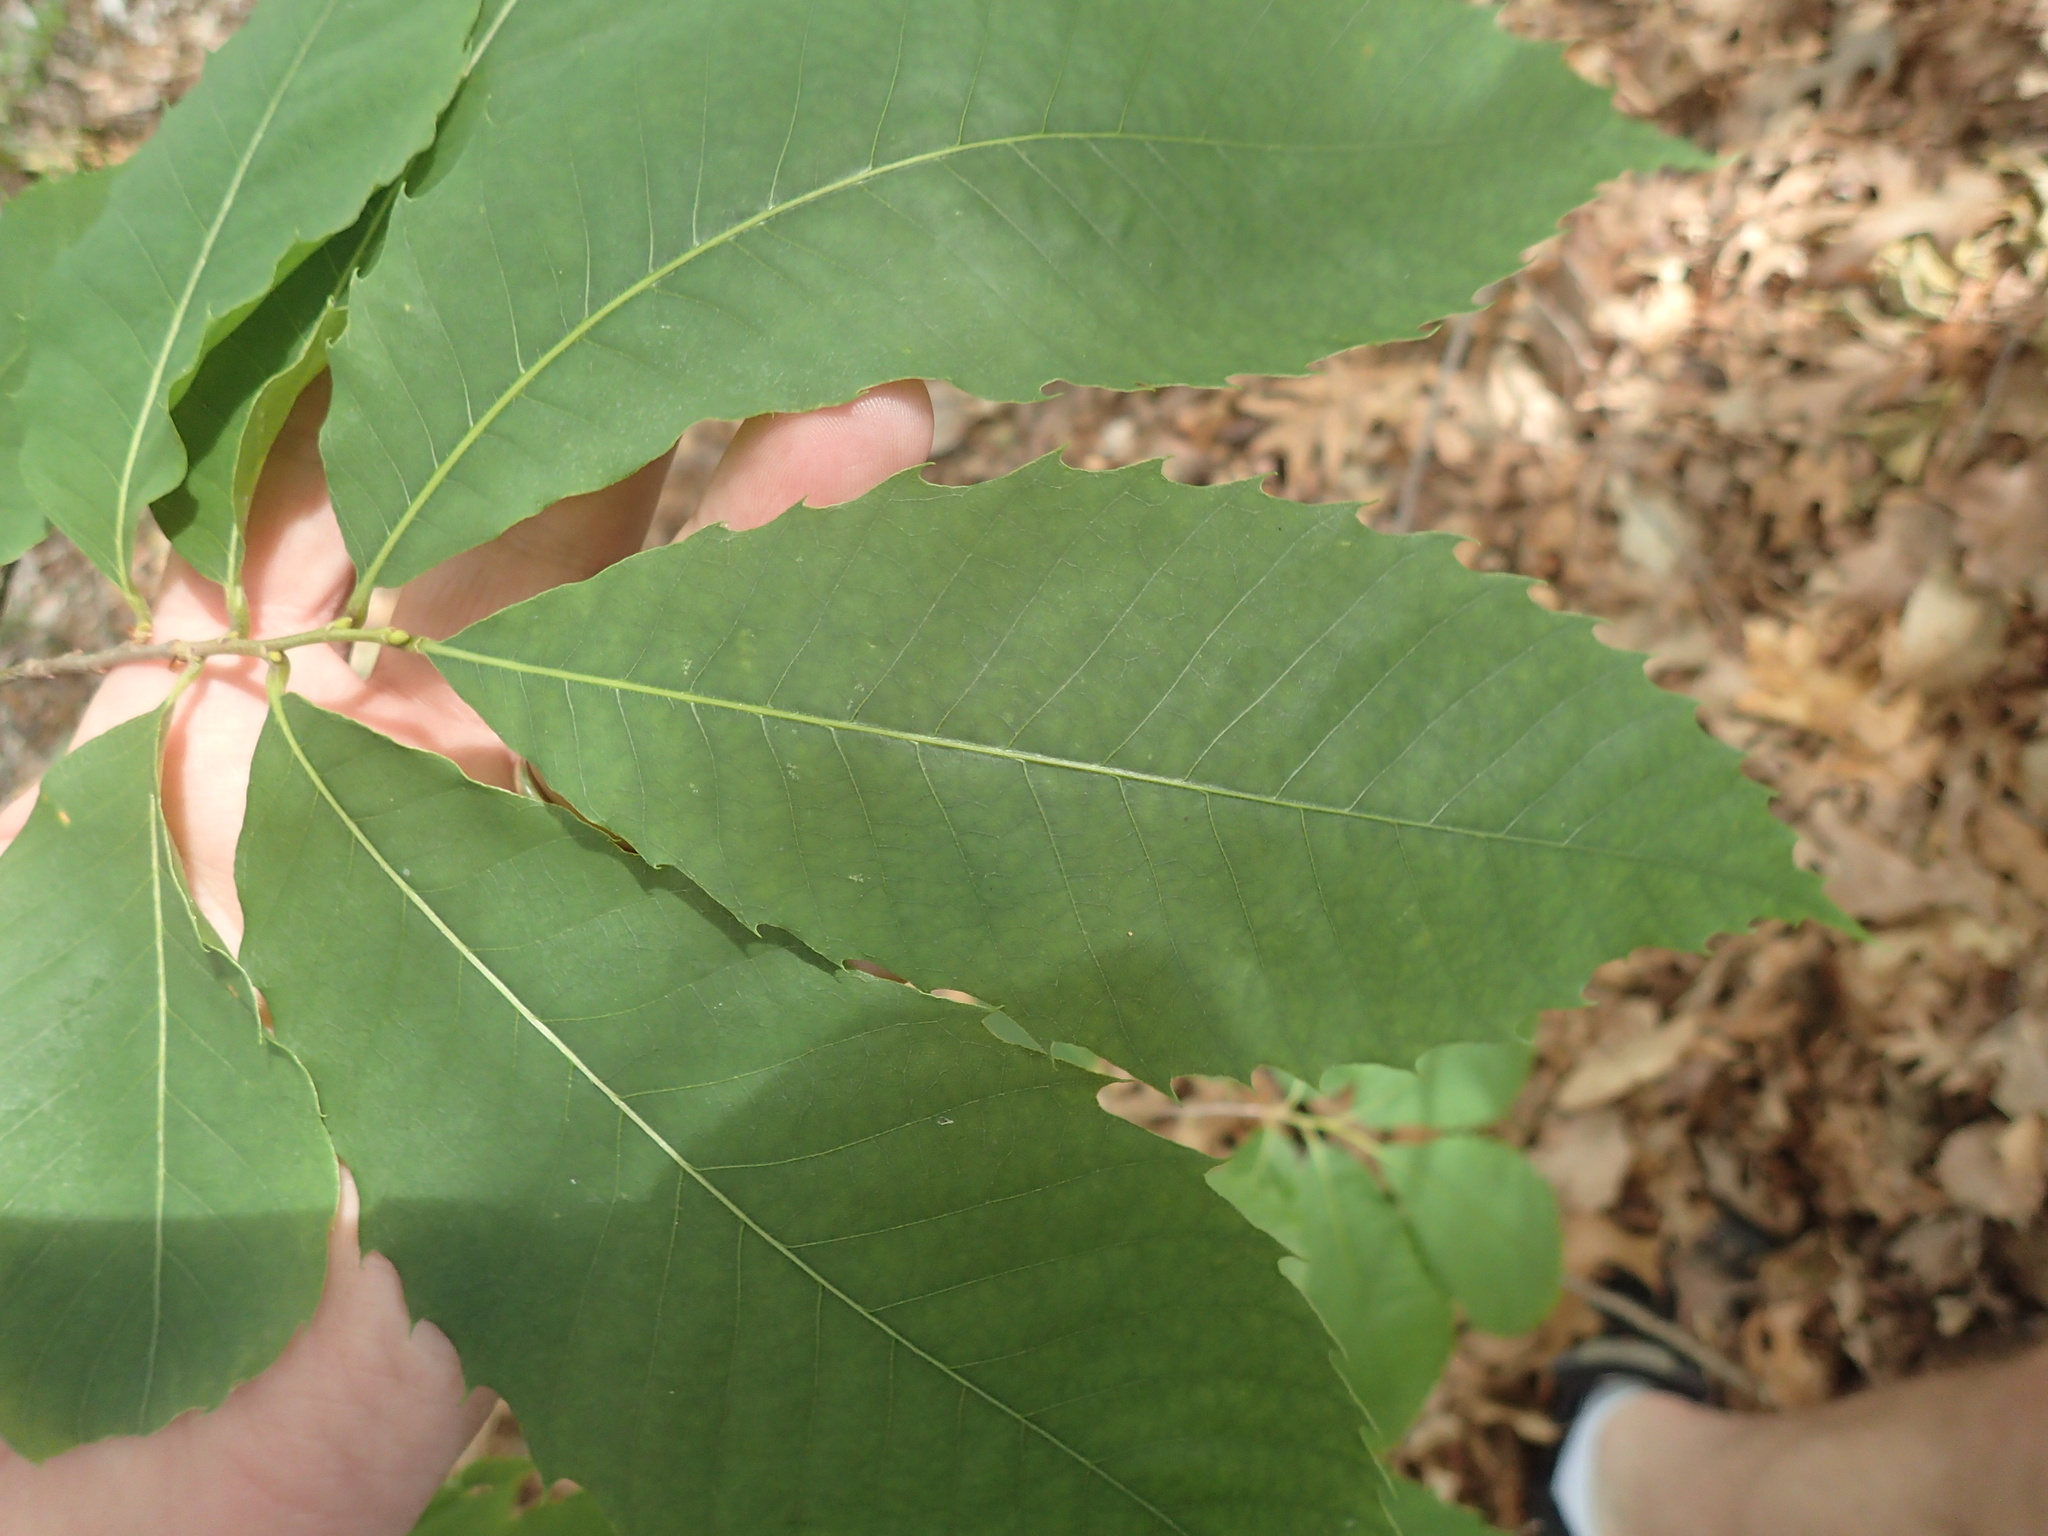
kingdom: Plantae
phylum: Tracheophyta
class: Magnoliopsida
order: Fagales
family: Fagaceae
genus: Castanea
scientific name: Castanea dentata
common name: American chestnut
